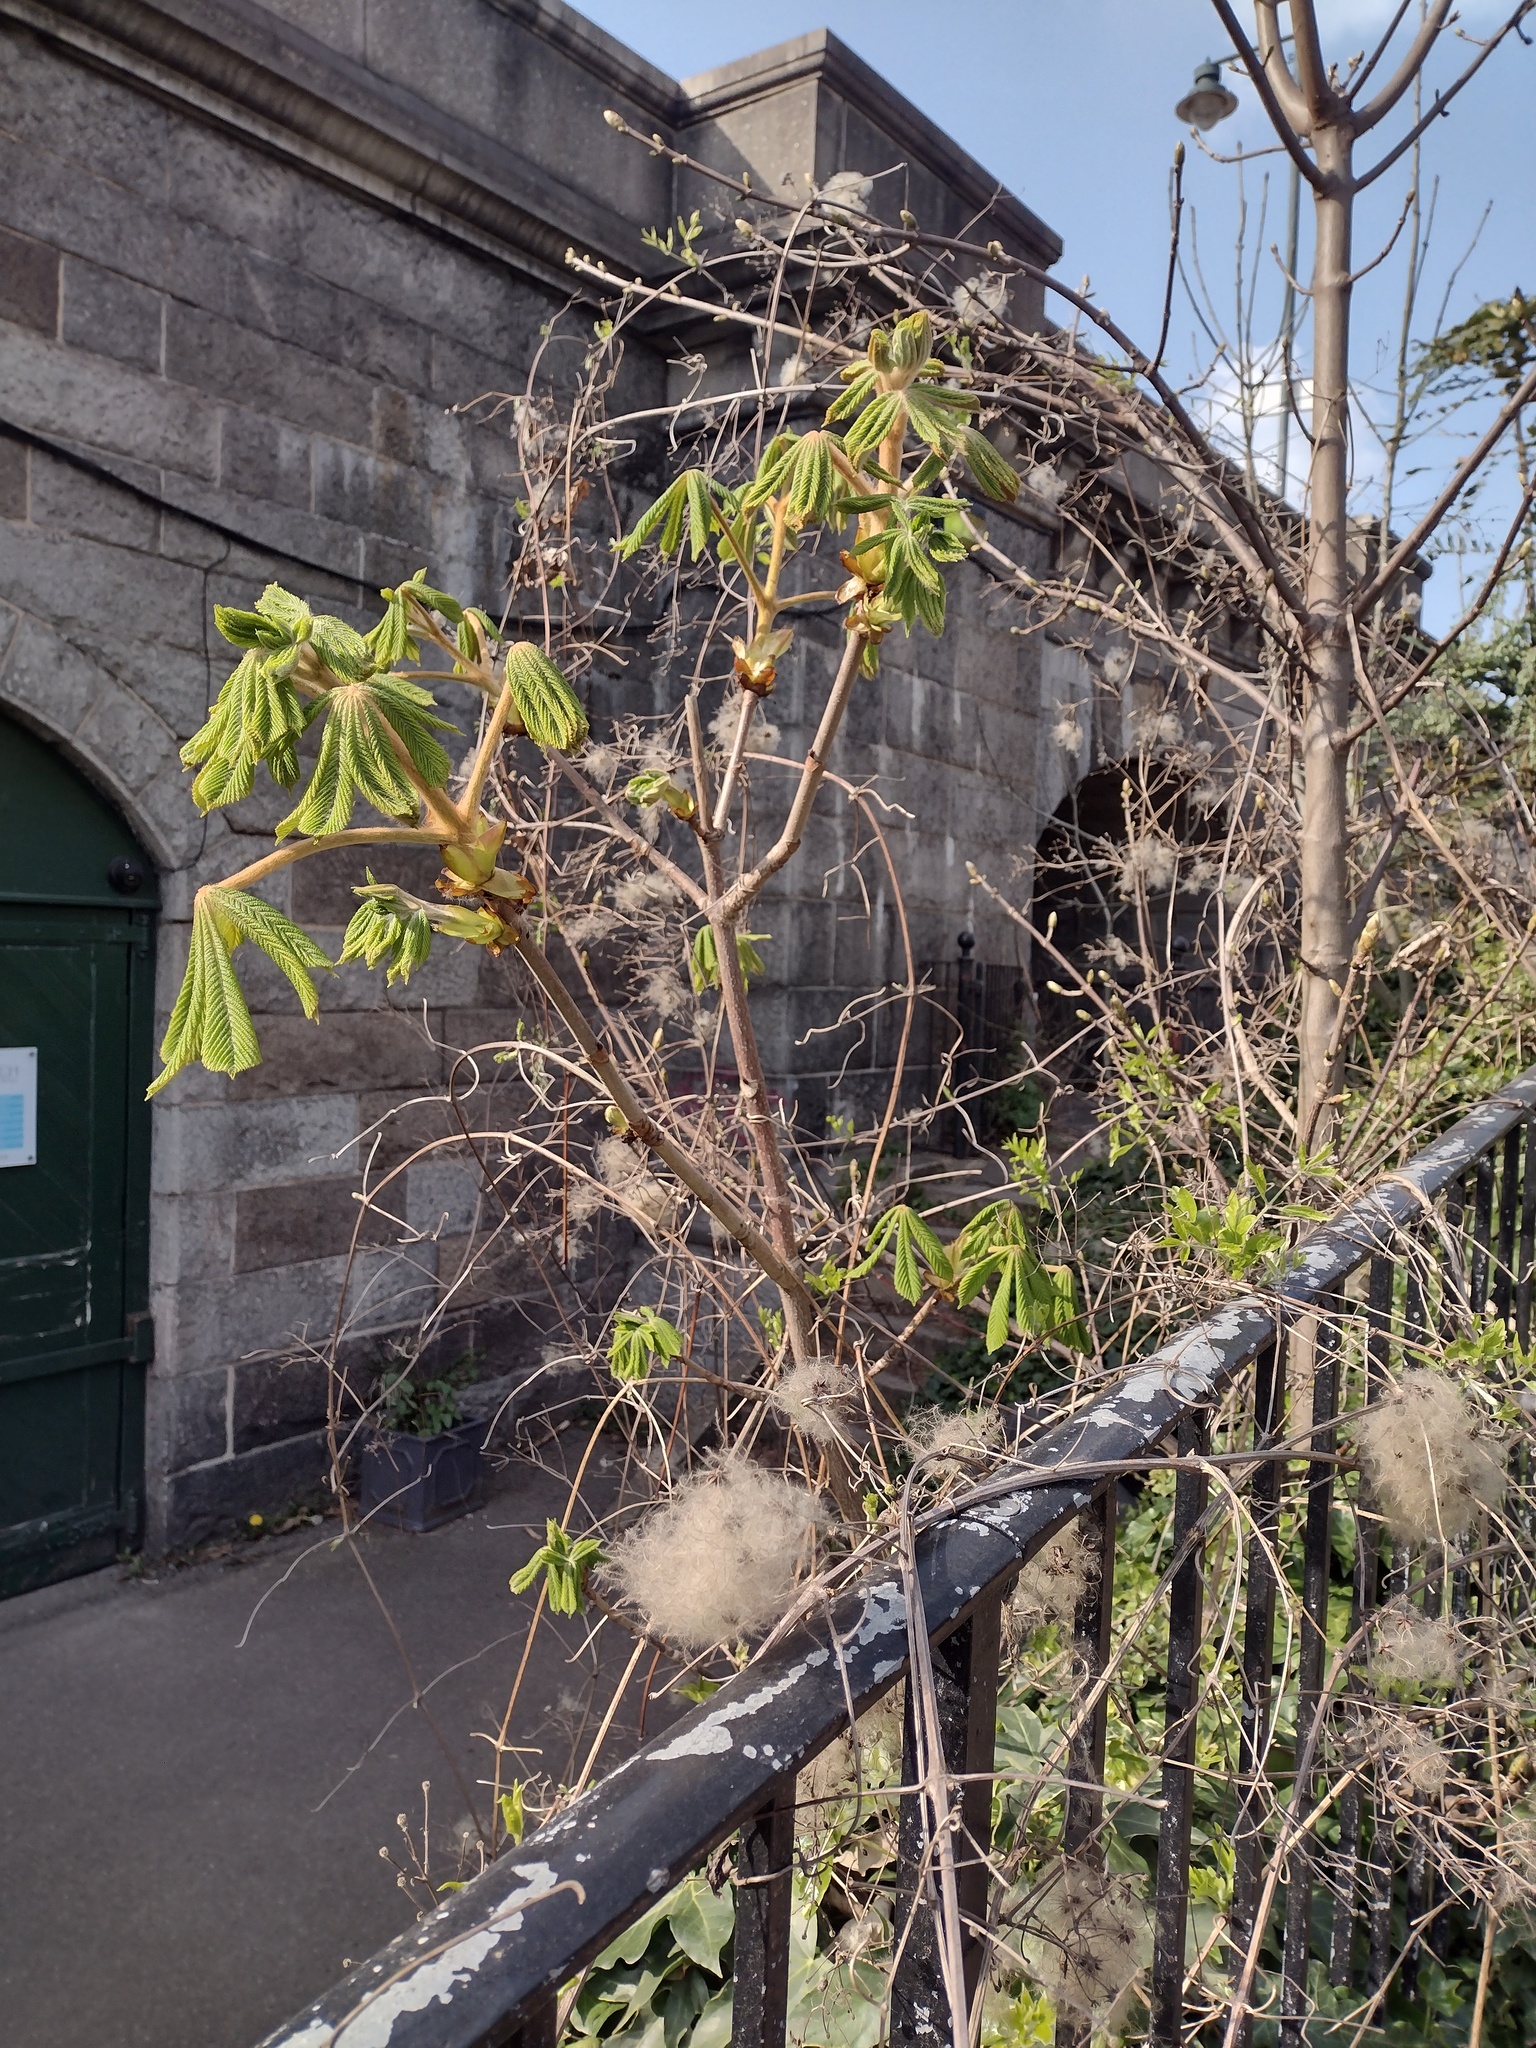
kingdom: Plantae
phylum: Tracheophyta
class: Magnoliopsida
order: Sapindales
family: Sapindaceae
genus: Aesculus
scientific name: Aesculus hippocastanum
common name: Horse-chestnut
